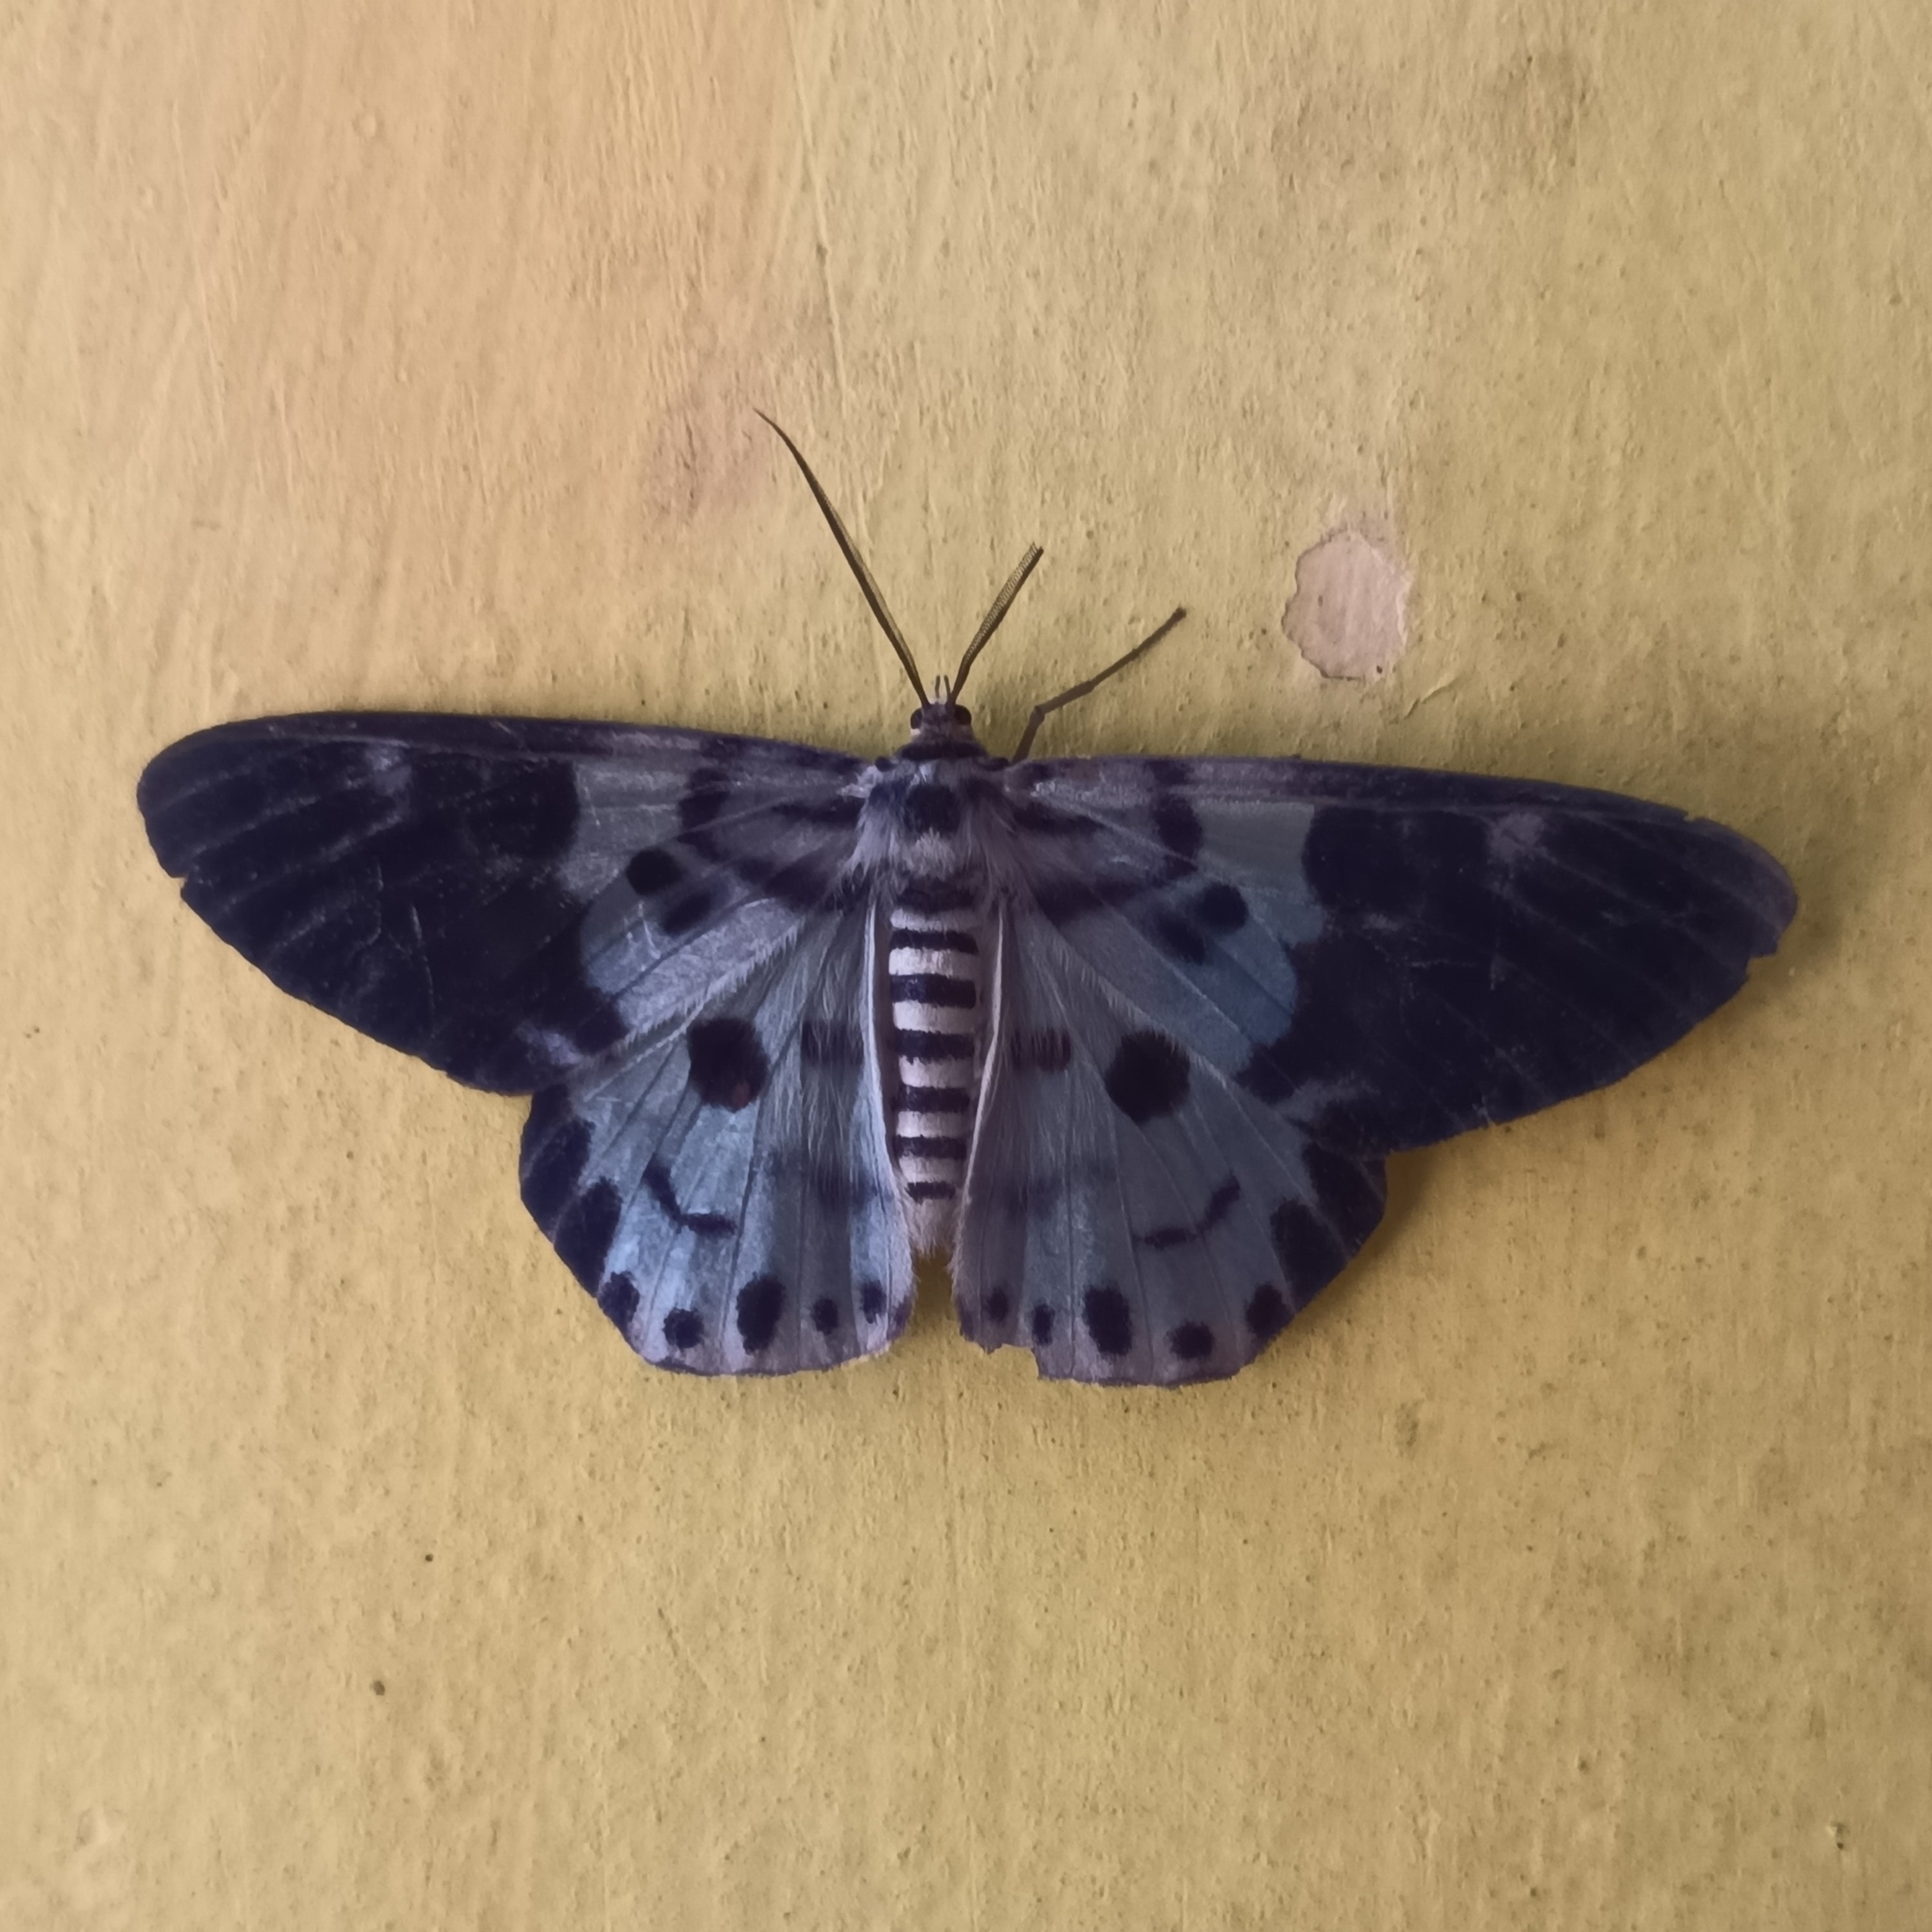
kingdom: Animalia
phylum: Arthropoda
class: Insecta
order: Lepidoptera
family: Geometridae
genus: Dysphania
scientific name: Dysphania percota
